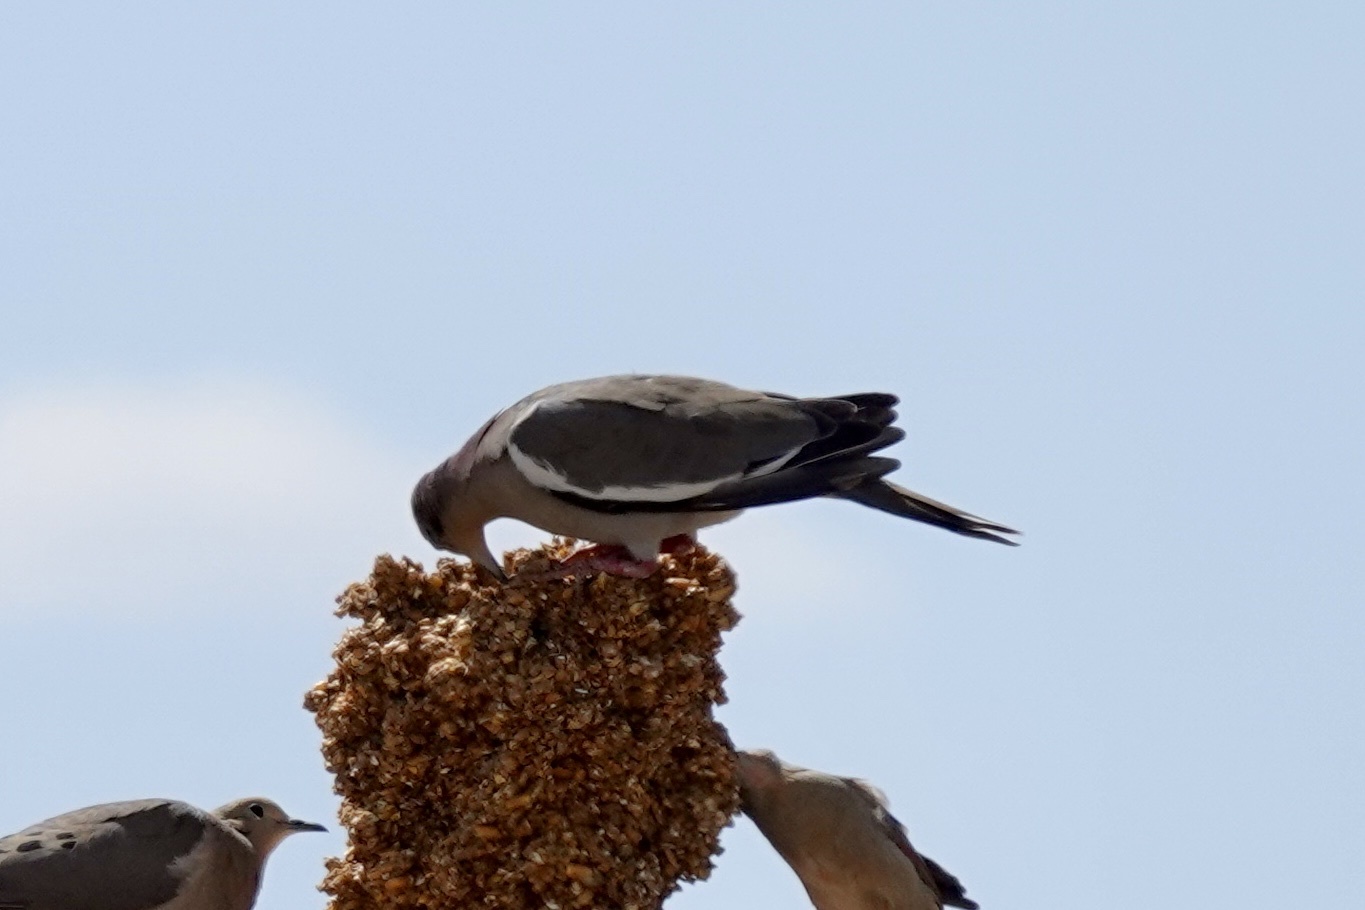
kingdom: Animalia
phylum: Chordata
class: Aves
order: Columbiformes
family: Columbidae
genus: Zenaida
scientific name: Zenaida asiatica
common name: White-winged dove
